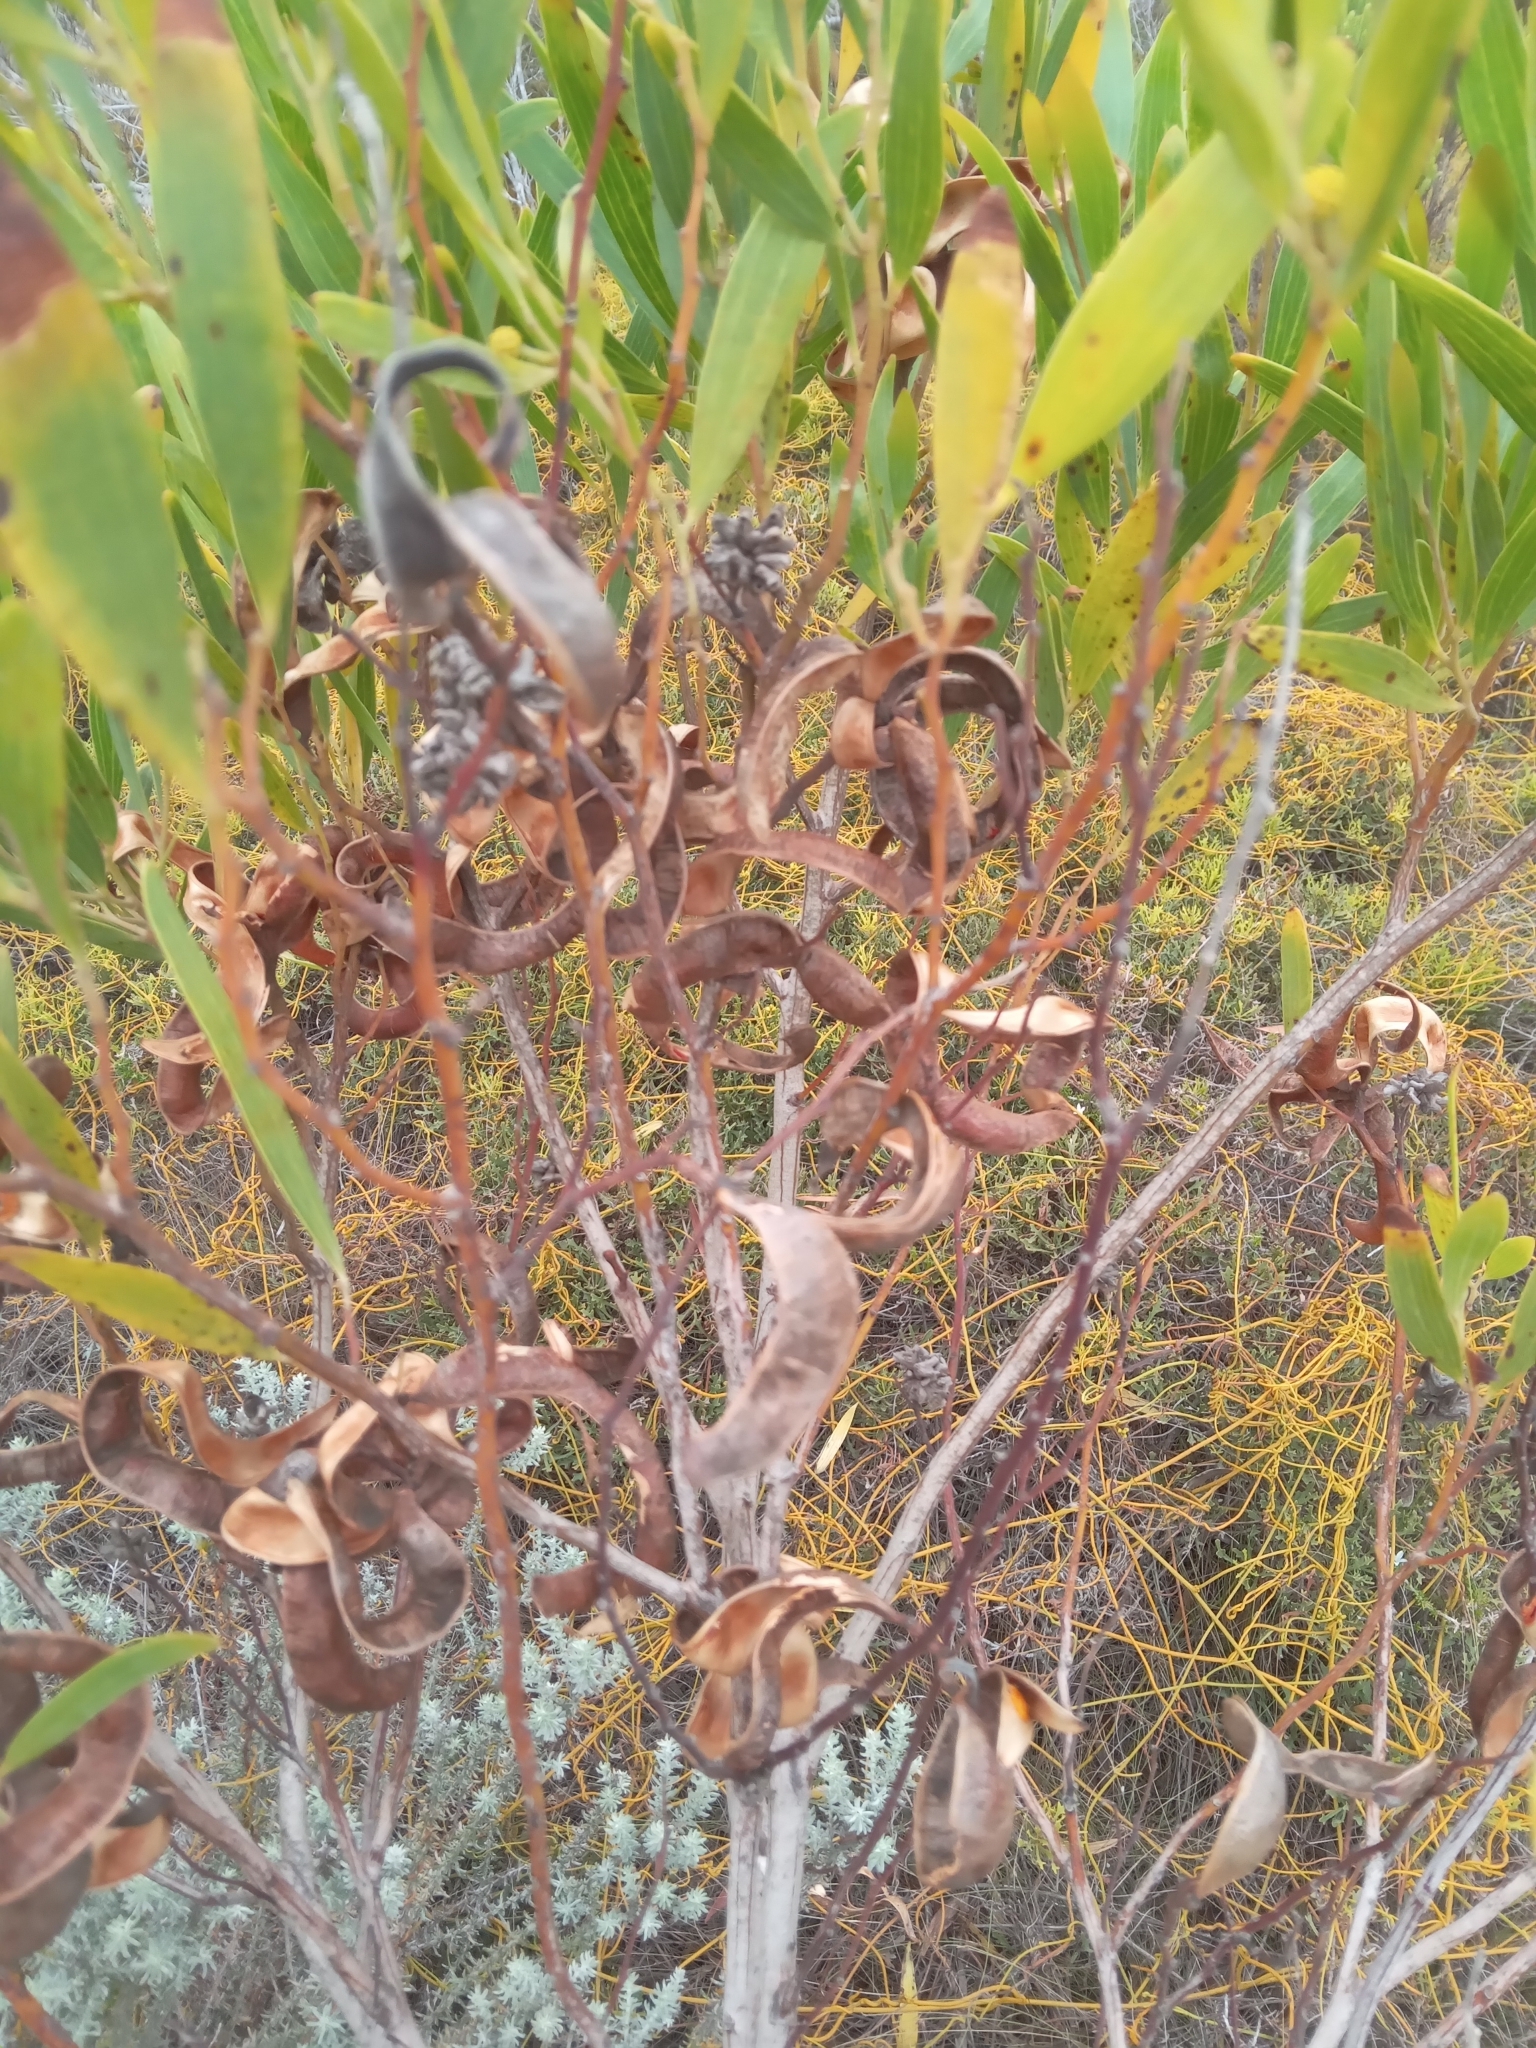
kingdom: Plantae
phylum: Tracheophyta
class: Magnoliopsida
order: Fabales
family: Fabaceae
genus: Acacia
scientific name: Acacia cyclops
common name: Coastal wattle
